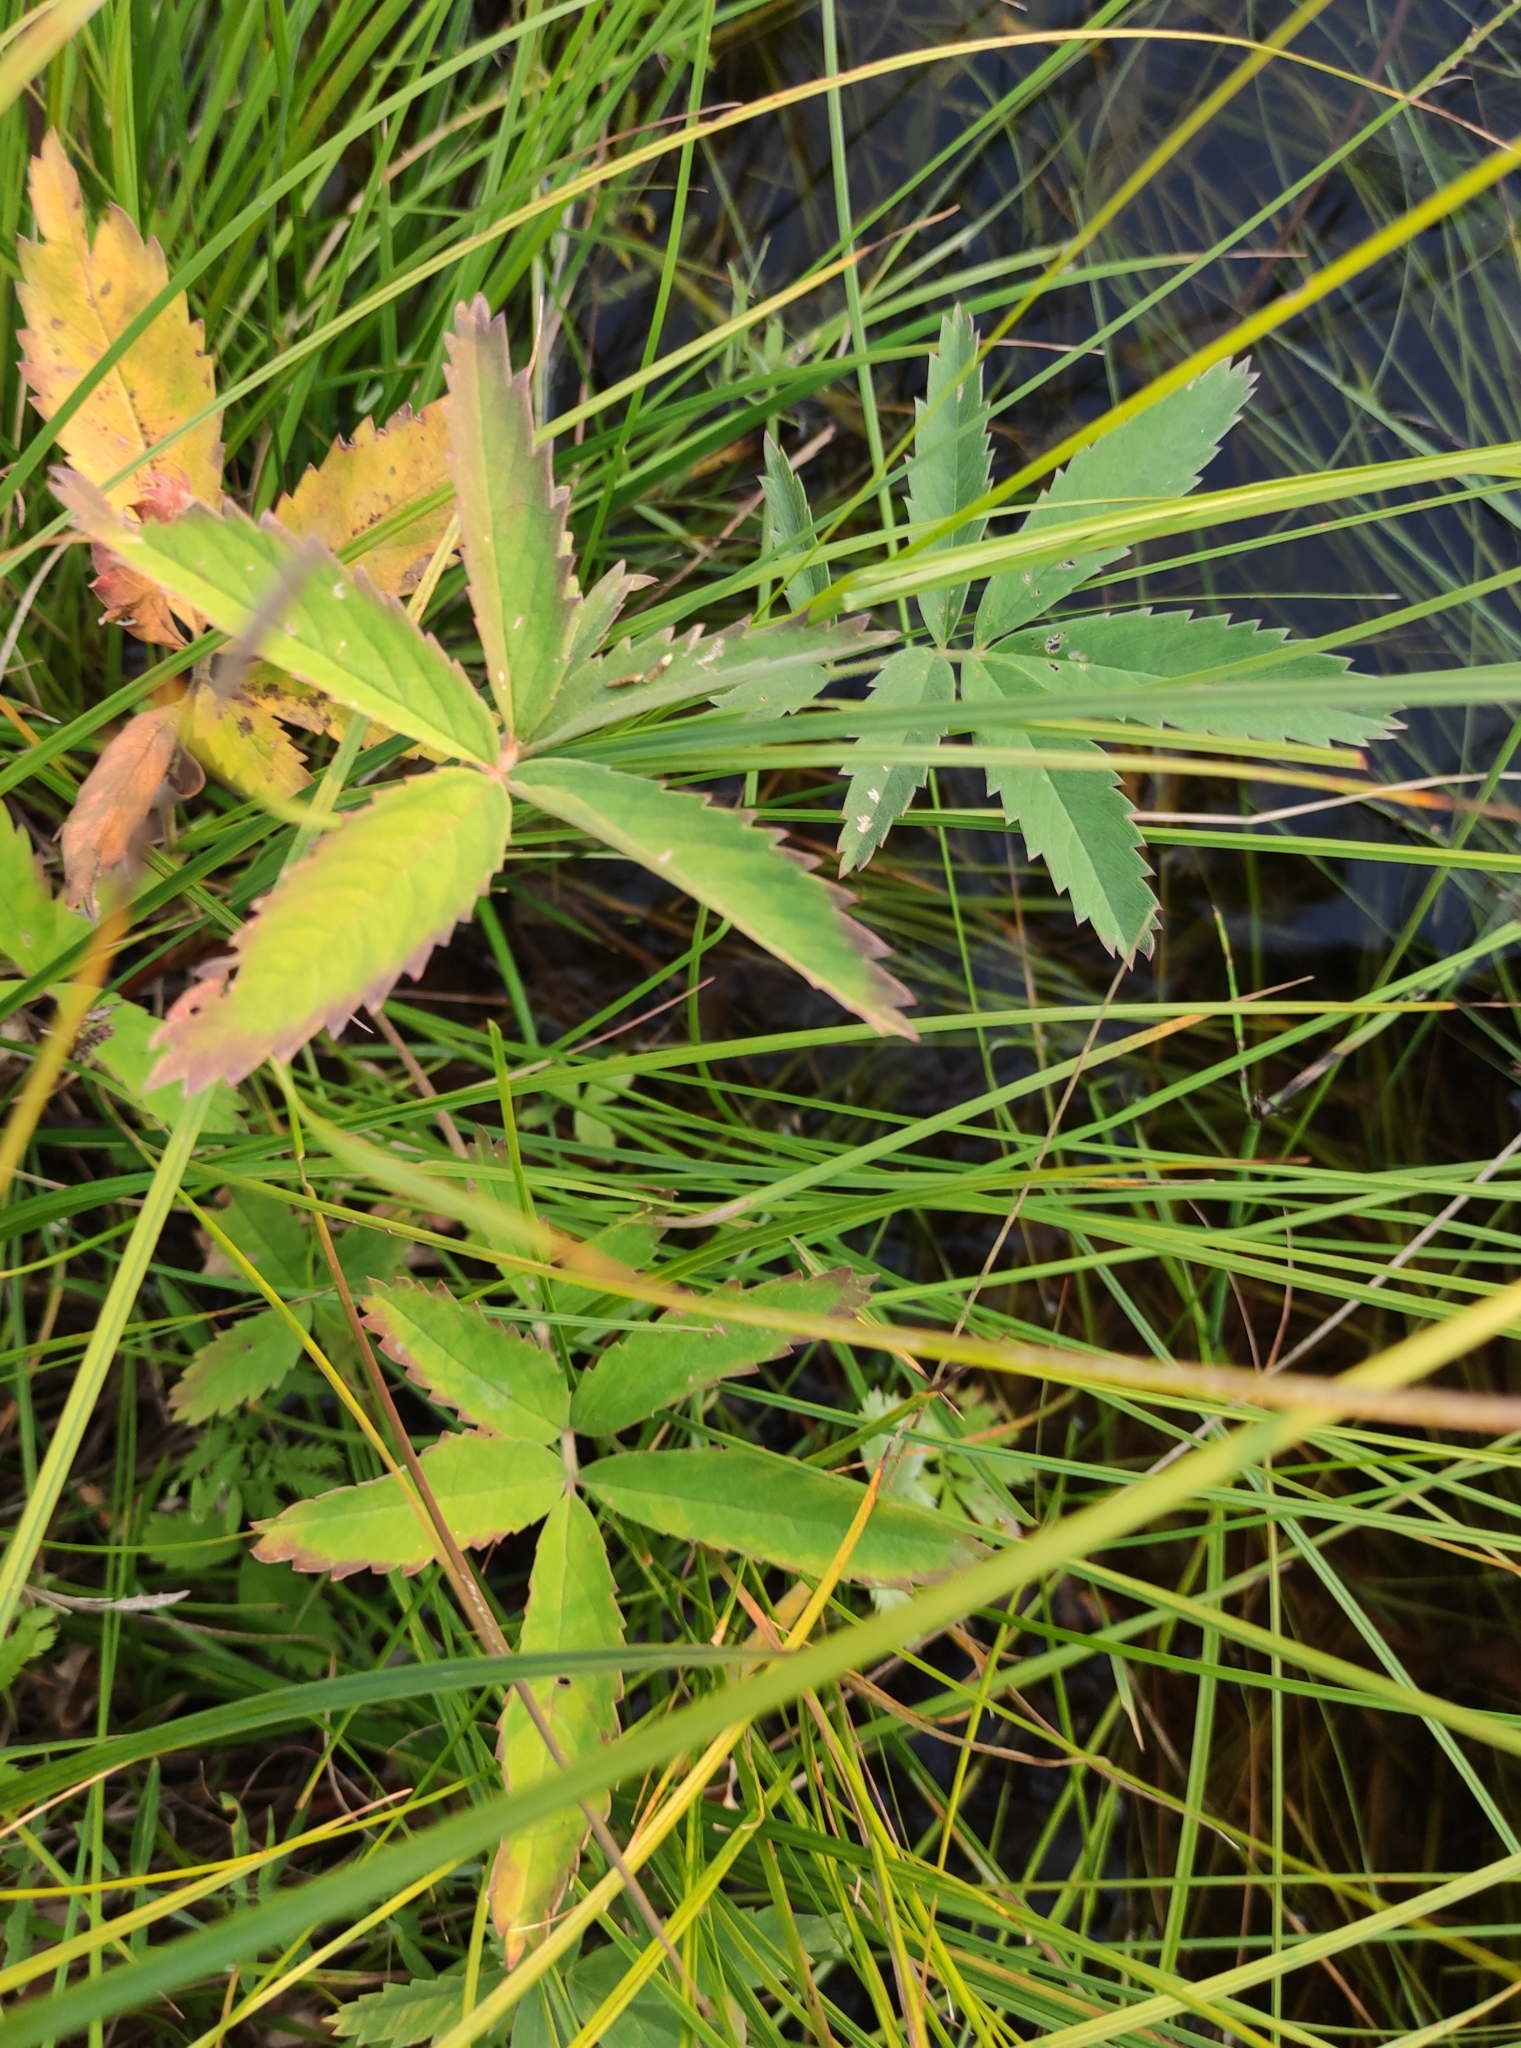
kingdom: Plantae
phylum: Tracheophyta
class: Magnoliopsida
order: Rosales
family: Rosaceae
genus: Comarum
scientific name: Comarum palustre
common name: Marsh cinquefoil
